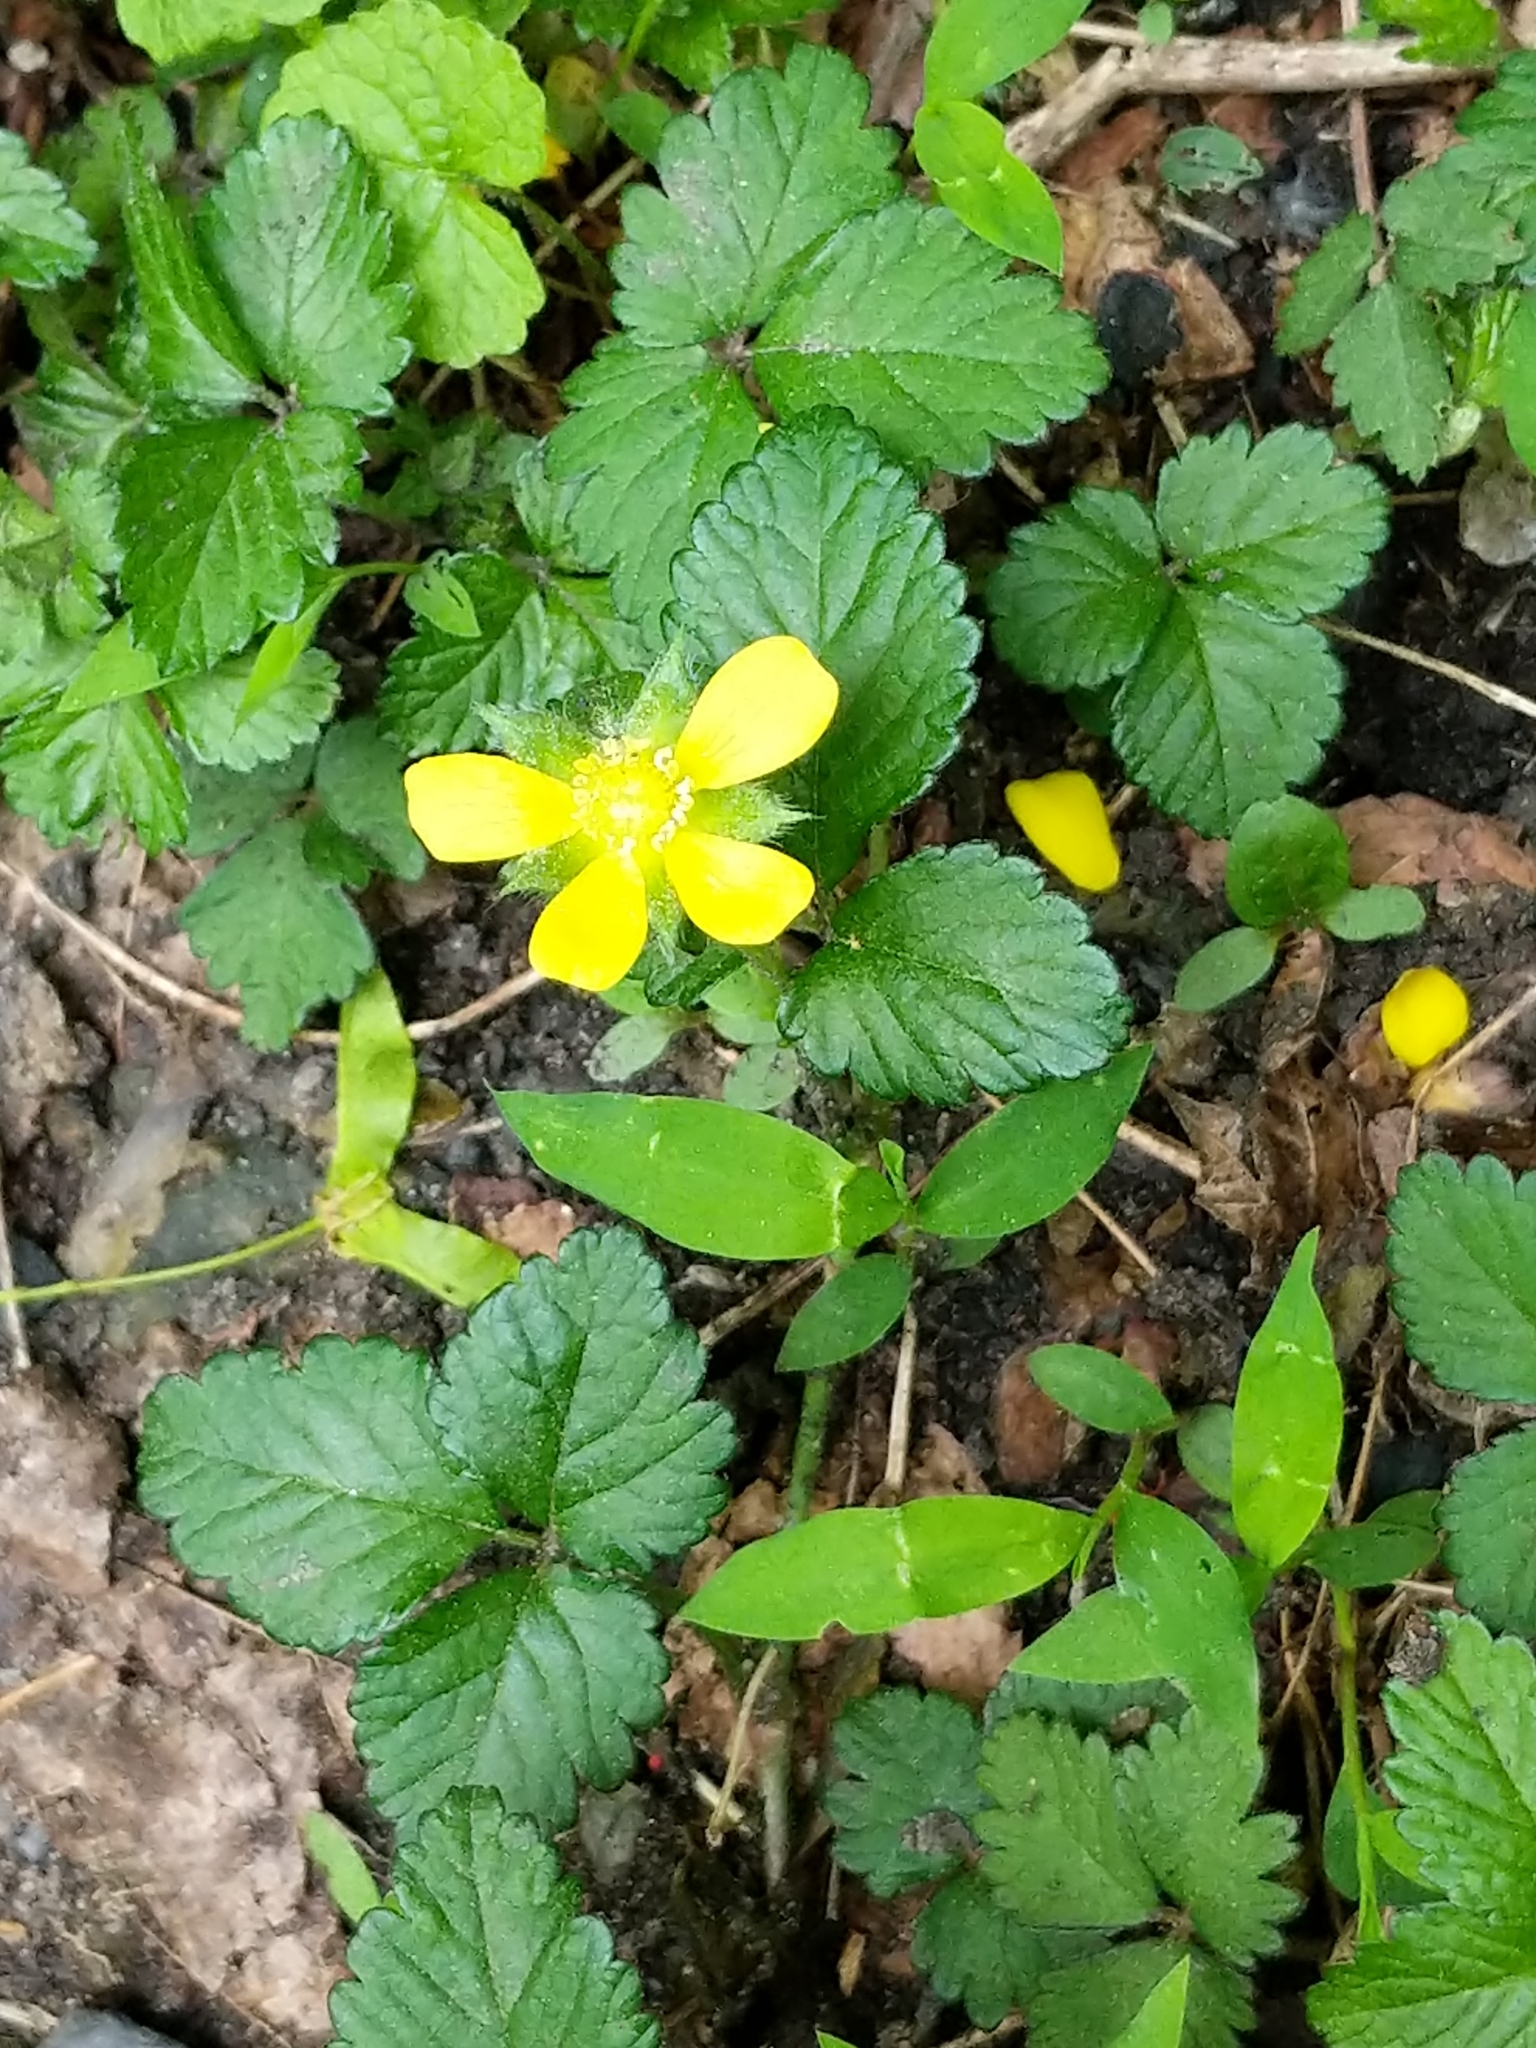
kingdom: Plantae
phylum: Tracheophyta
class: Magnoliopsida
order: Rosales
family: Rosaceae
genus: Potentilla
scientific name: Potentilla indica
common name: Yellow-flowered strawberry
